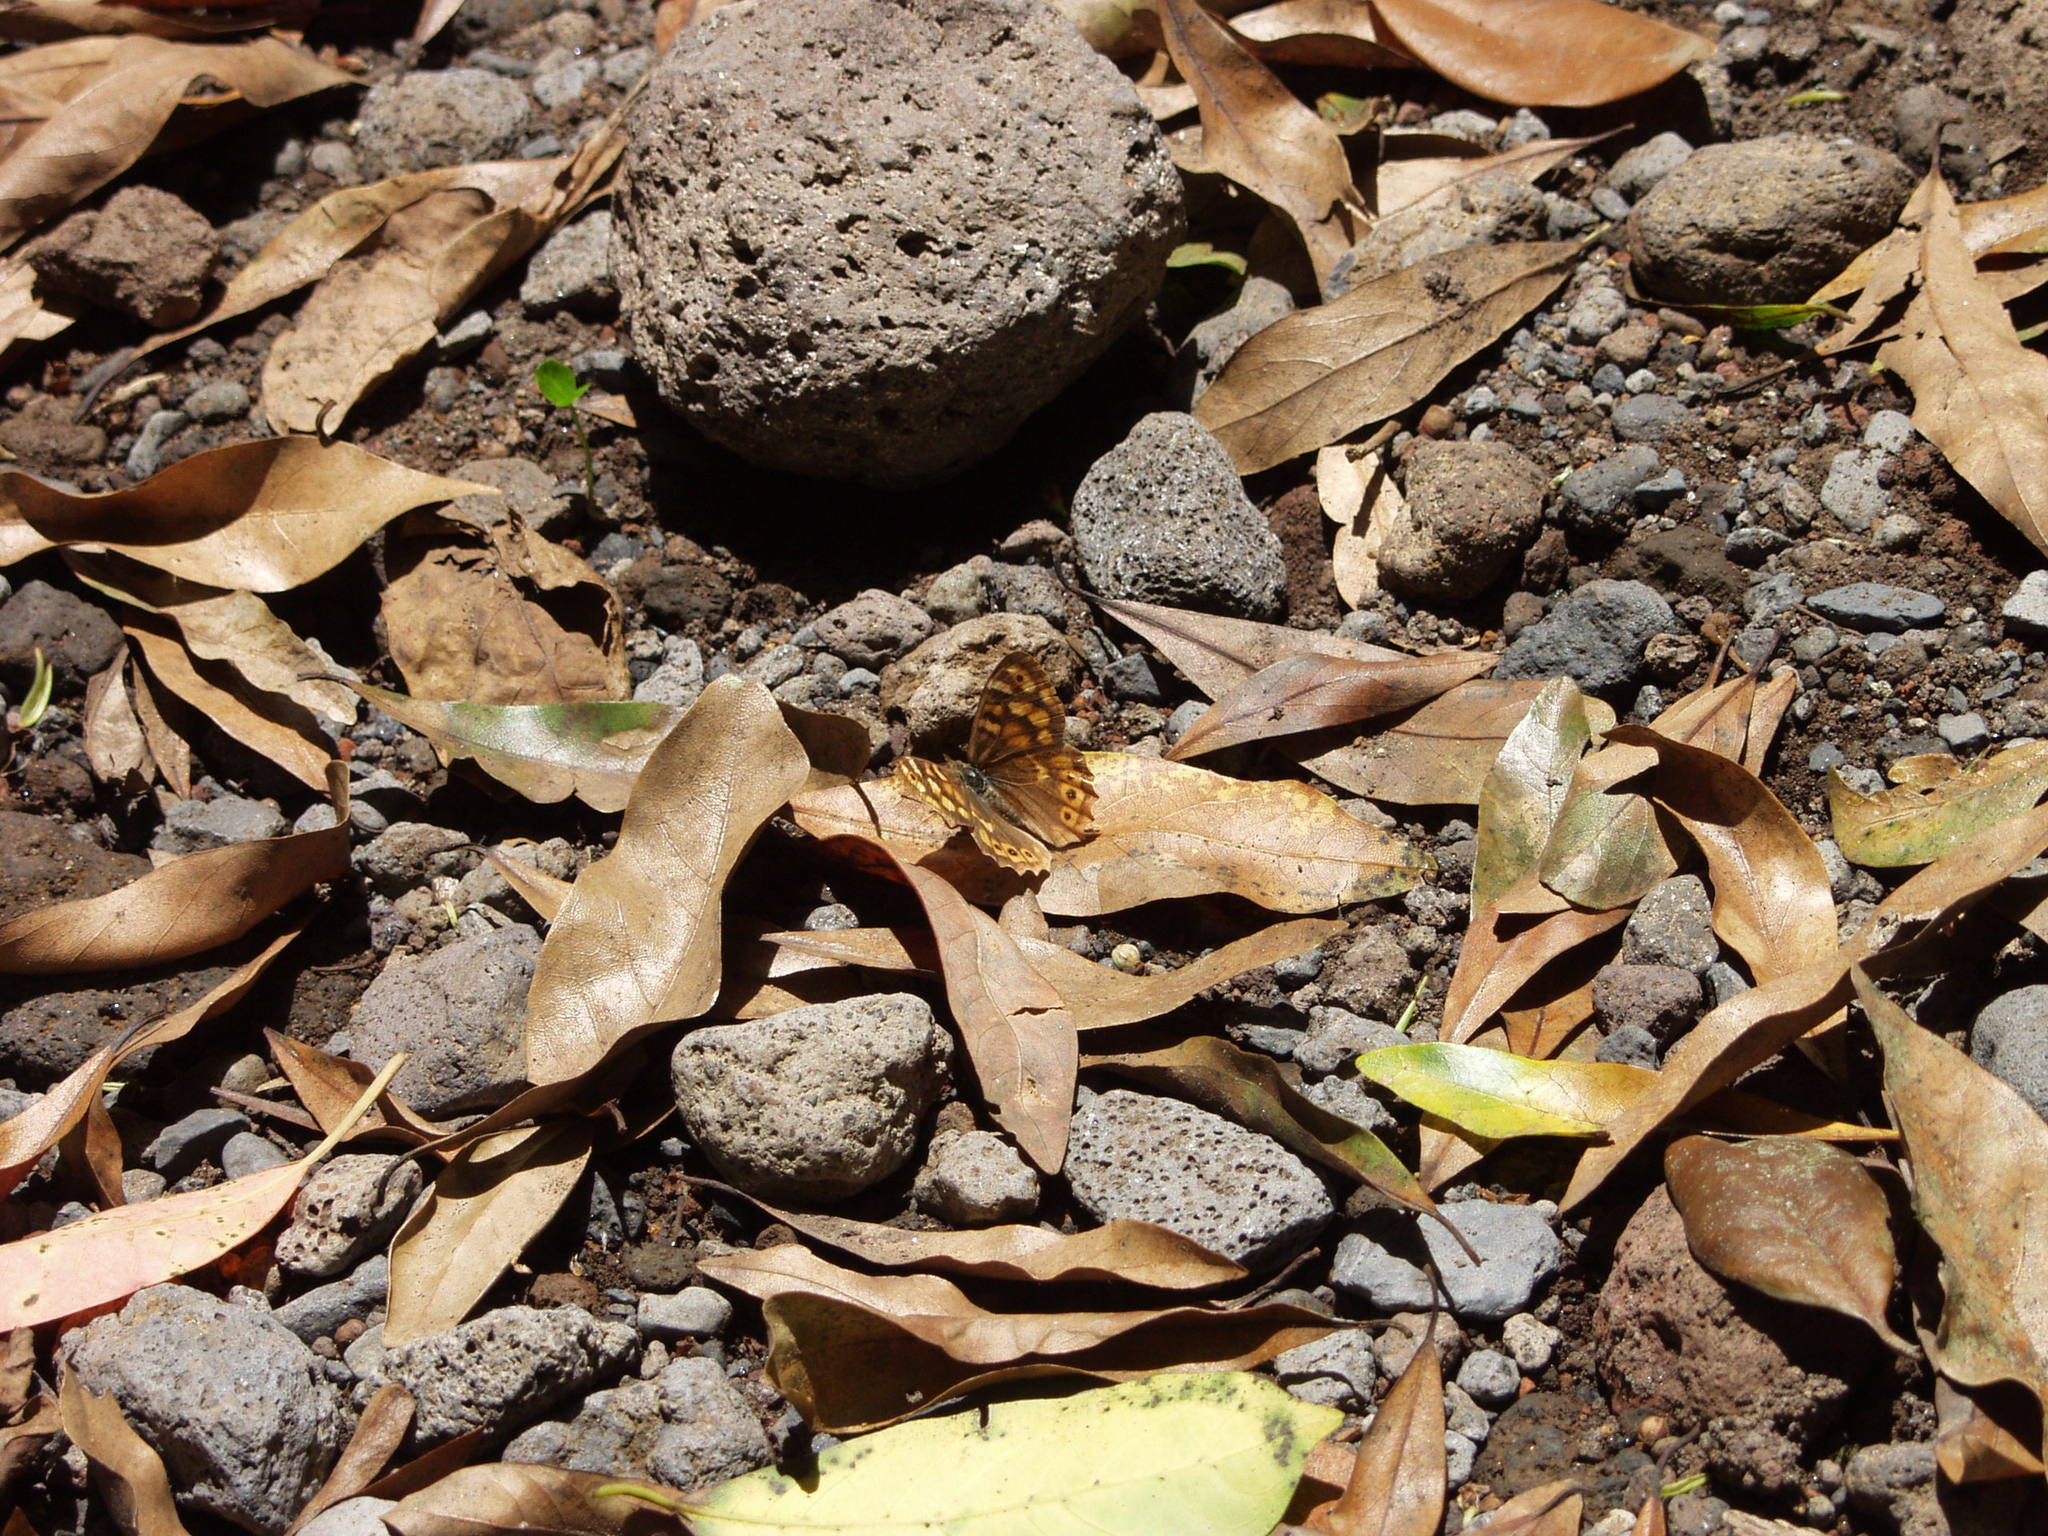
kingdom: Animalia
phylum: Arthropoda
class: Insecta
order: Lepidoptera
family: Nymphalidae
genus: Pararge
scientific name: Pararge aegeria
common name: Speckled wood
